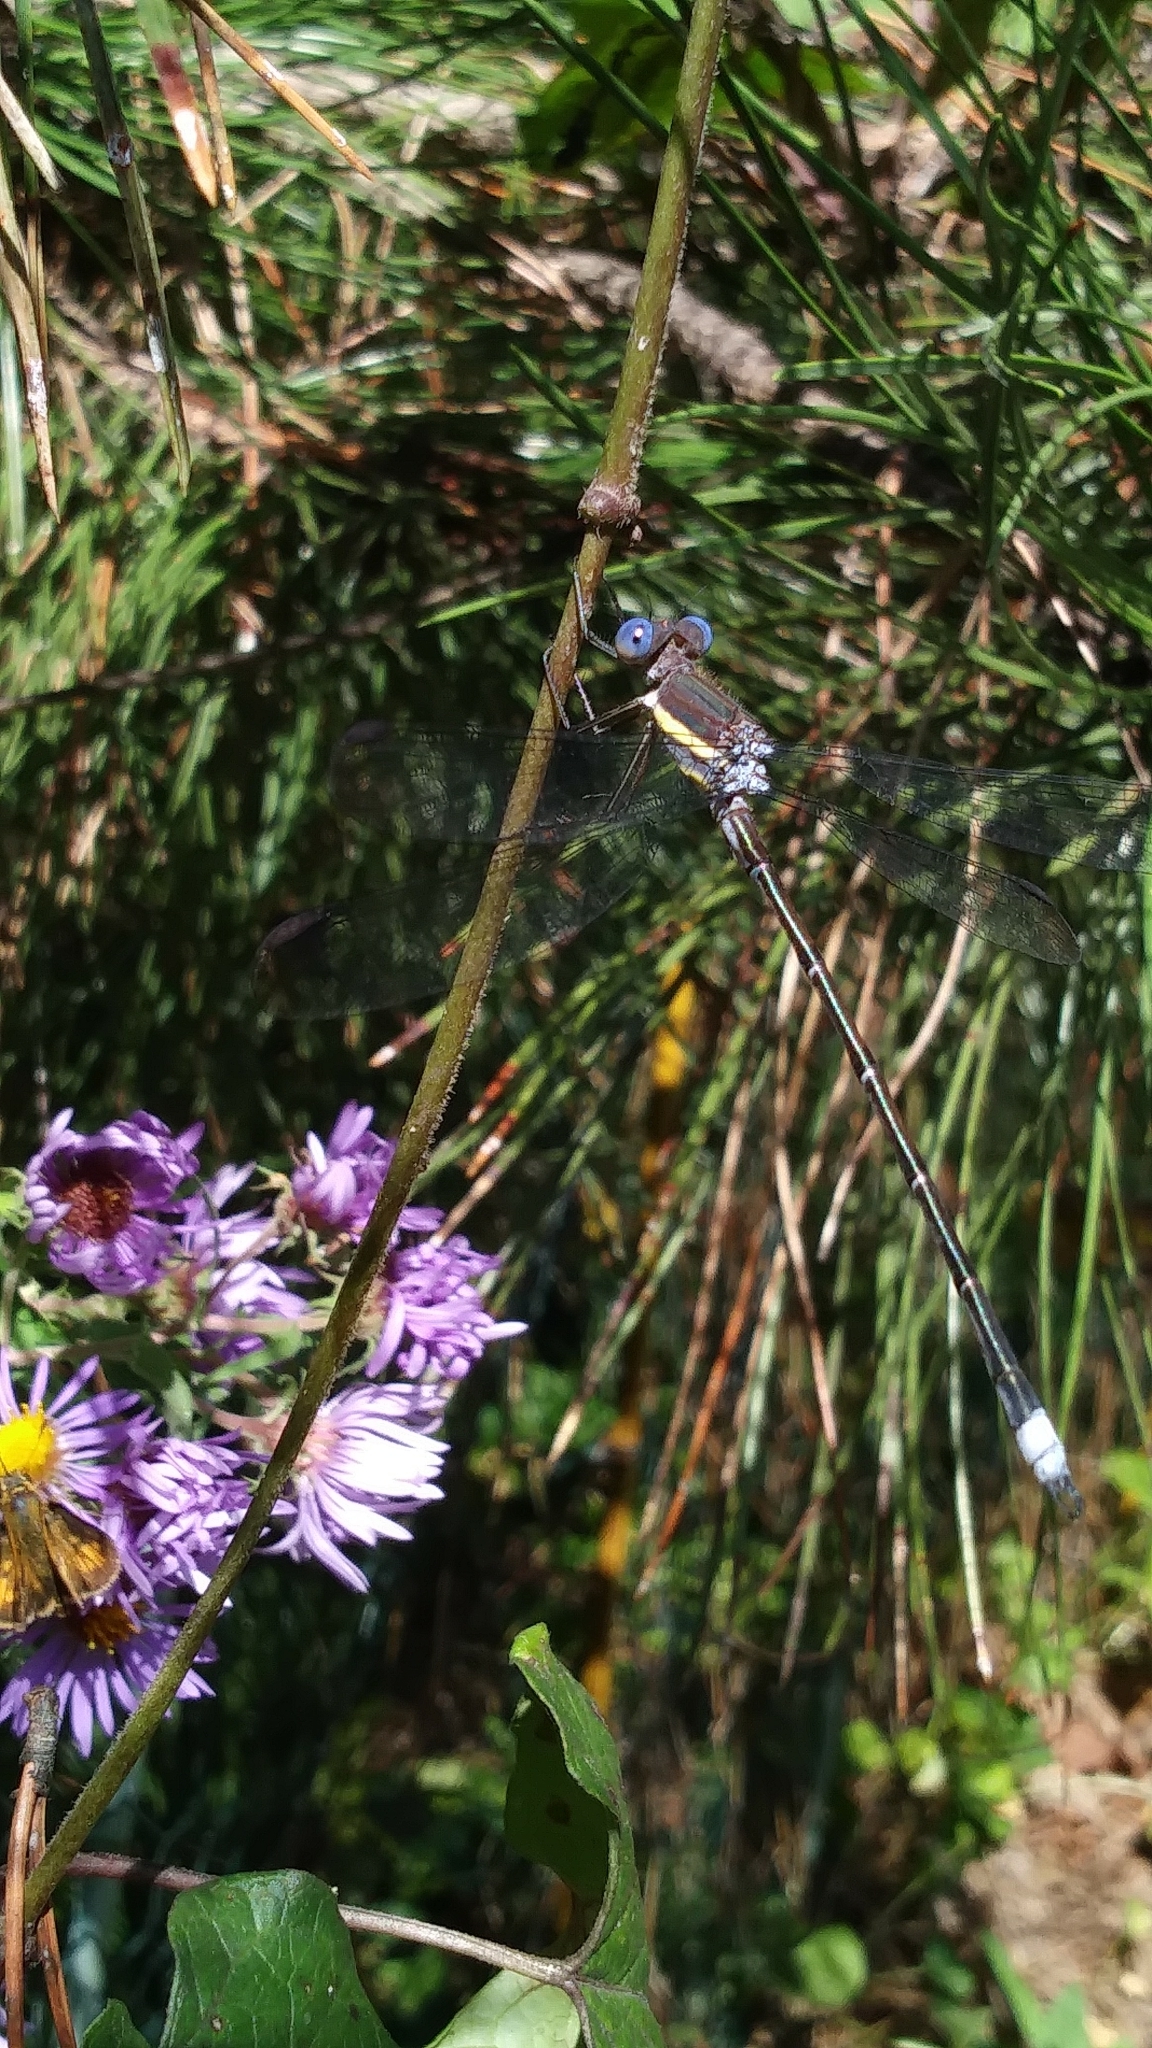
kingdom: Animalia
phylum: Arthropoda
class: Insecta
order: Odonata
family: Lestidae
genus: Archilestes
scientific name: Archilestes grandis
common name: Great spreadwing
